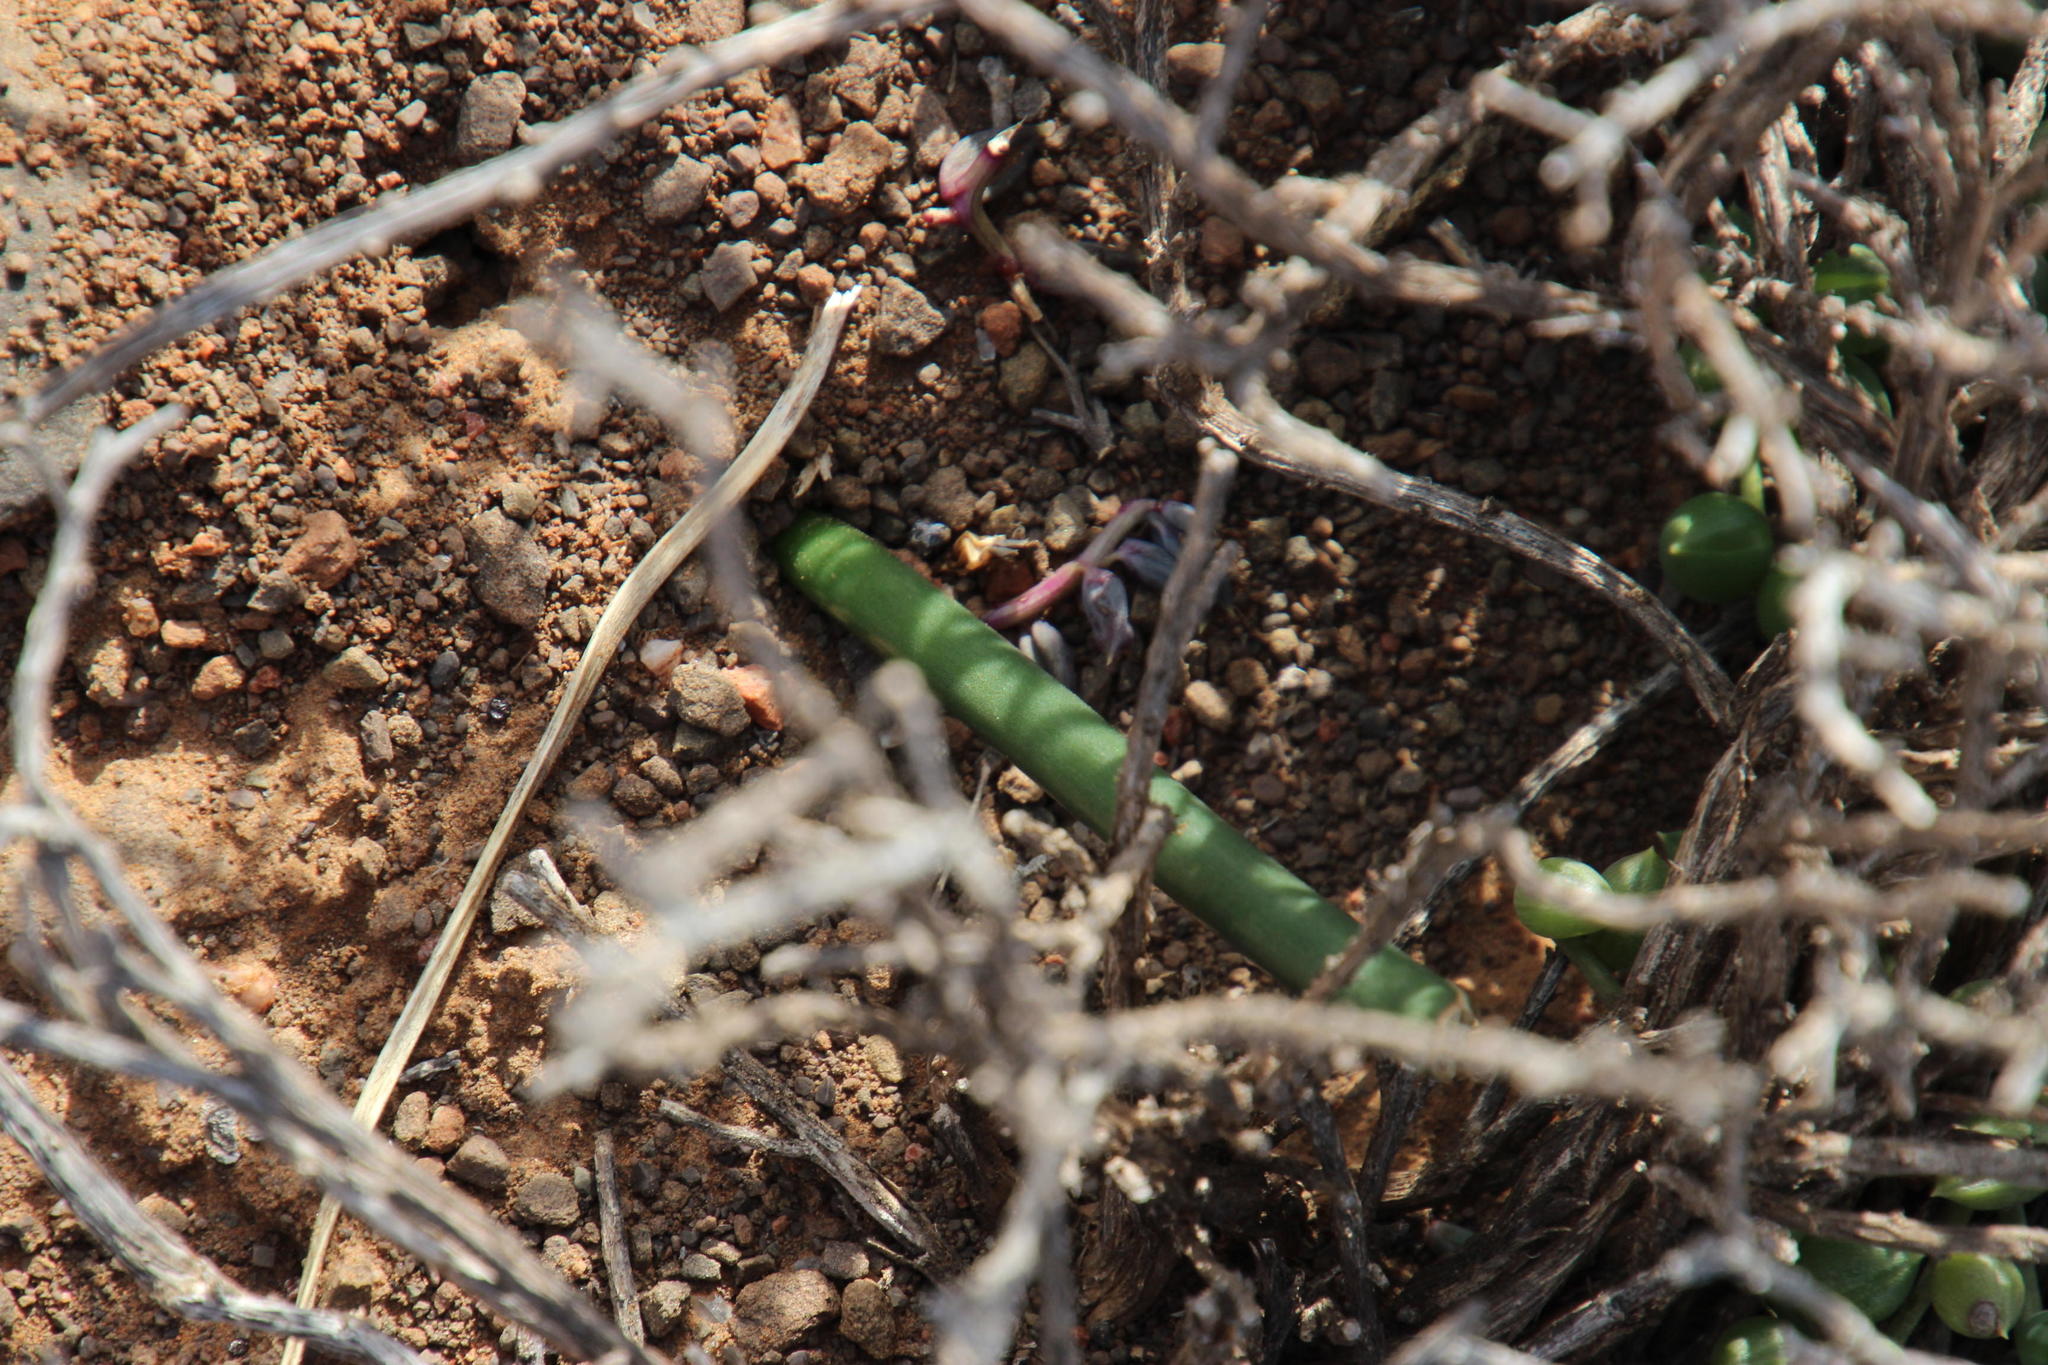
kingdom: Plantae
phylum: Tracheophyta
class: Liliopsida
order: Asparagales
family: Asparagaceae
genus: Drimia
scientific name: Drimia anomala
